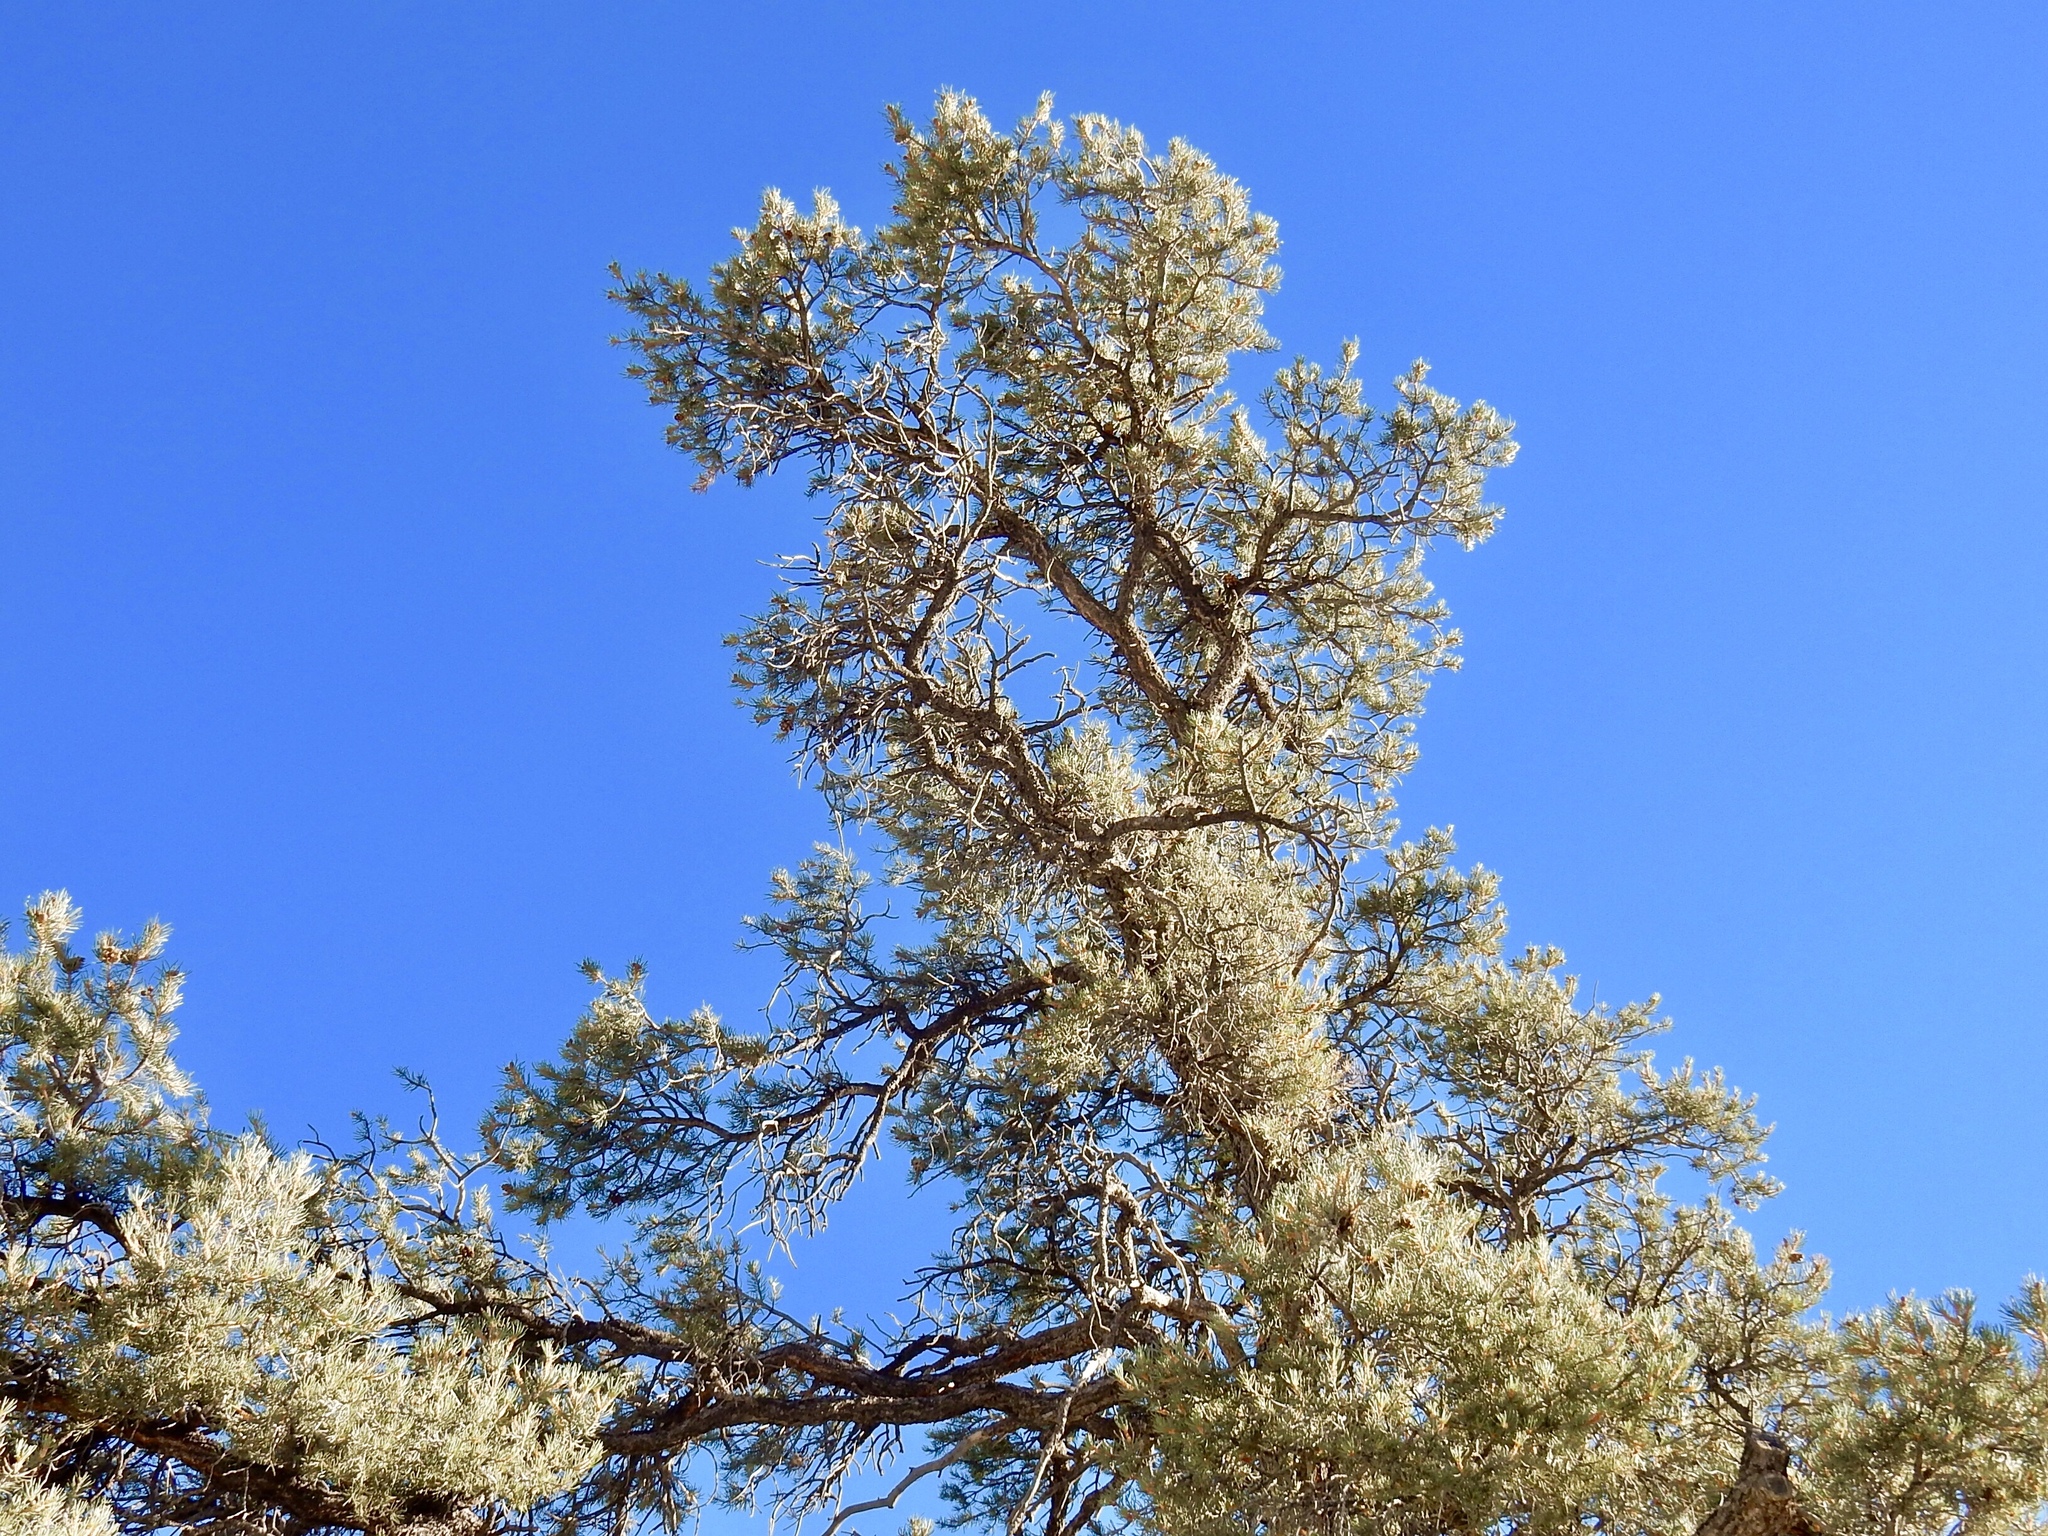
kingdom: Plantae
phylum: Tracheophyta
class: Pinopsida
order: Pinales
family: Pinaceae
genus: Pinus
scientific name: Pinus monophylla
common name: One-leaved nut pine
